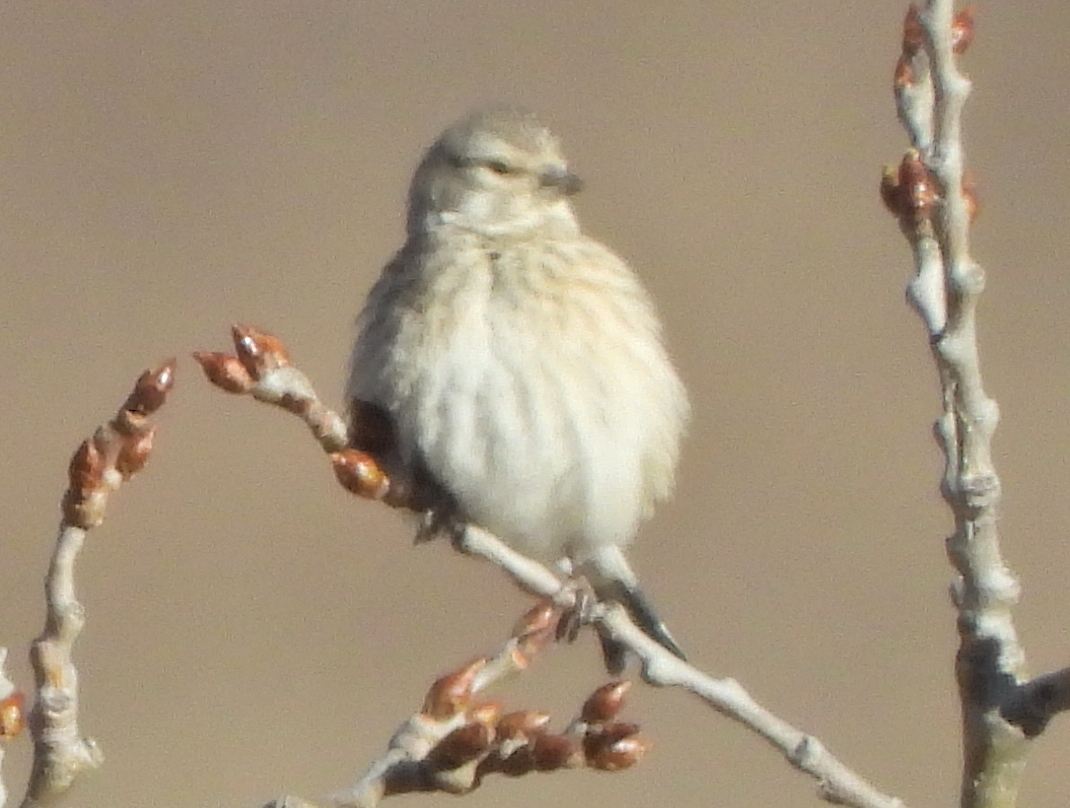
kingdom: Animalia
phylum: Chordata
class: Aves
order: Passeriformes
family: Fringillidae
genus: Linaria
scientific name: Linaria cannabina
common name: Common linnet
